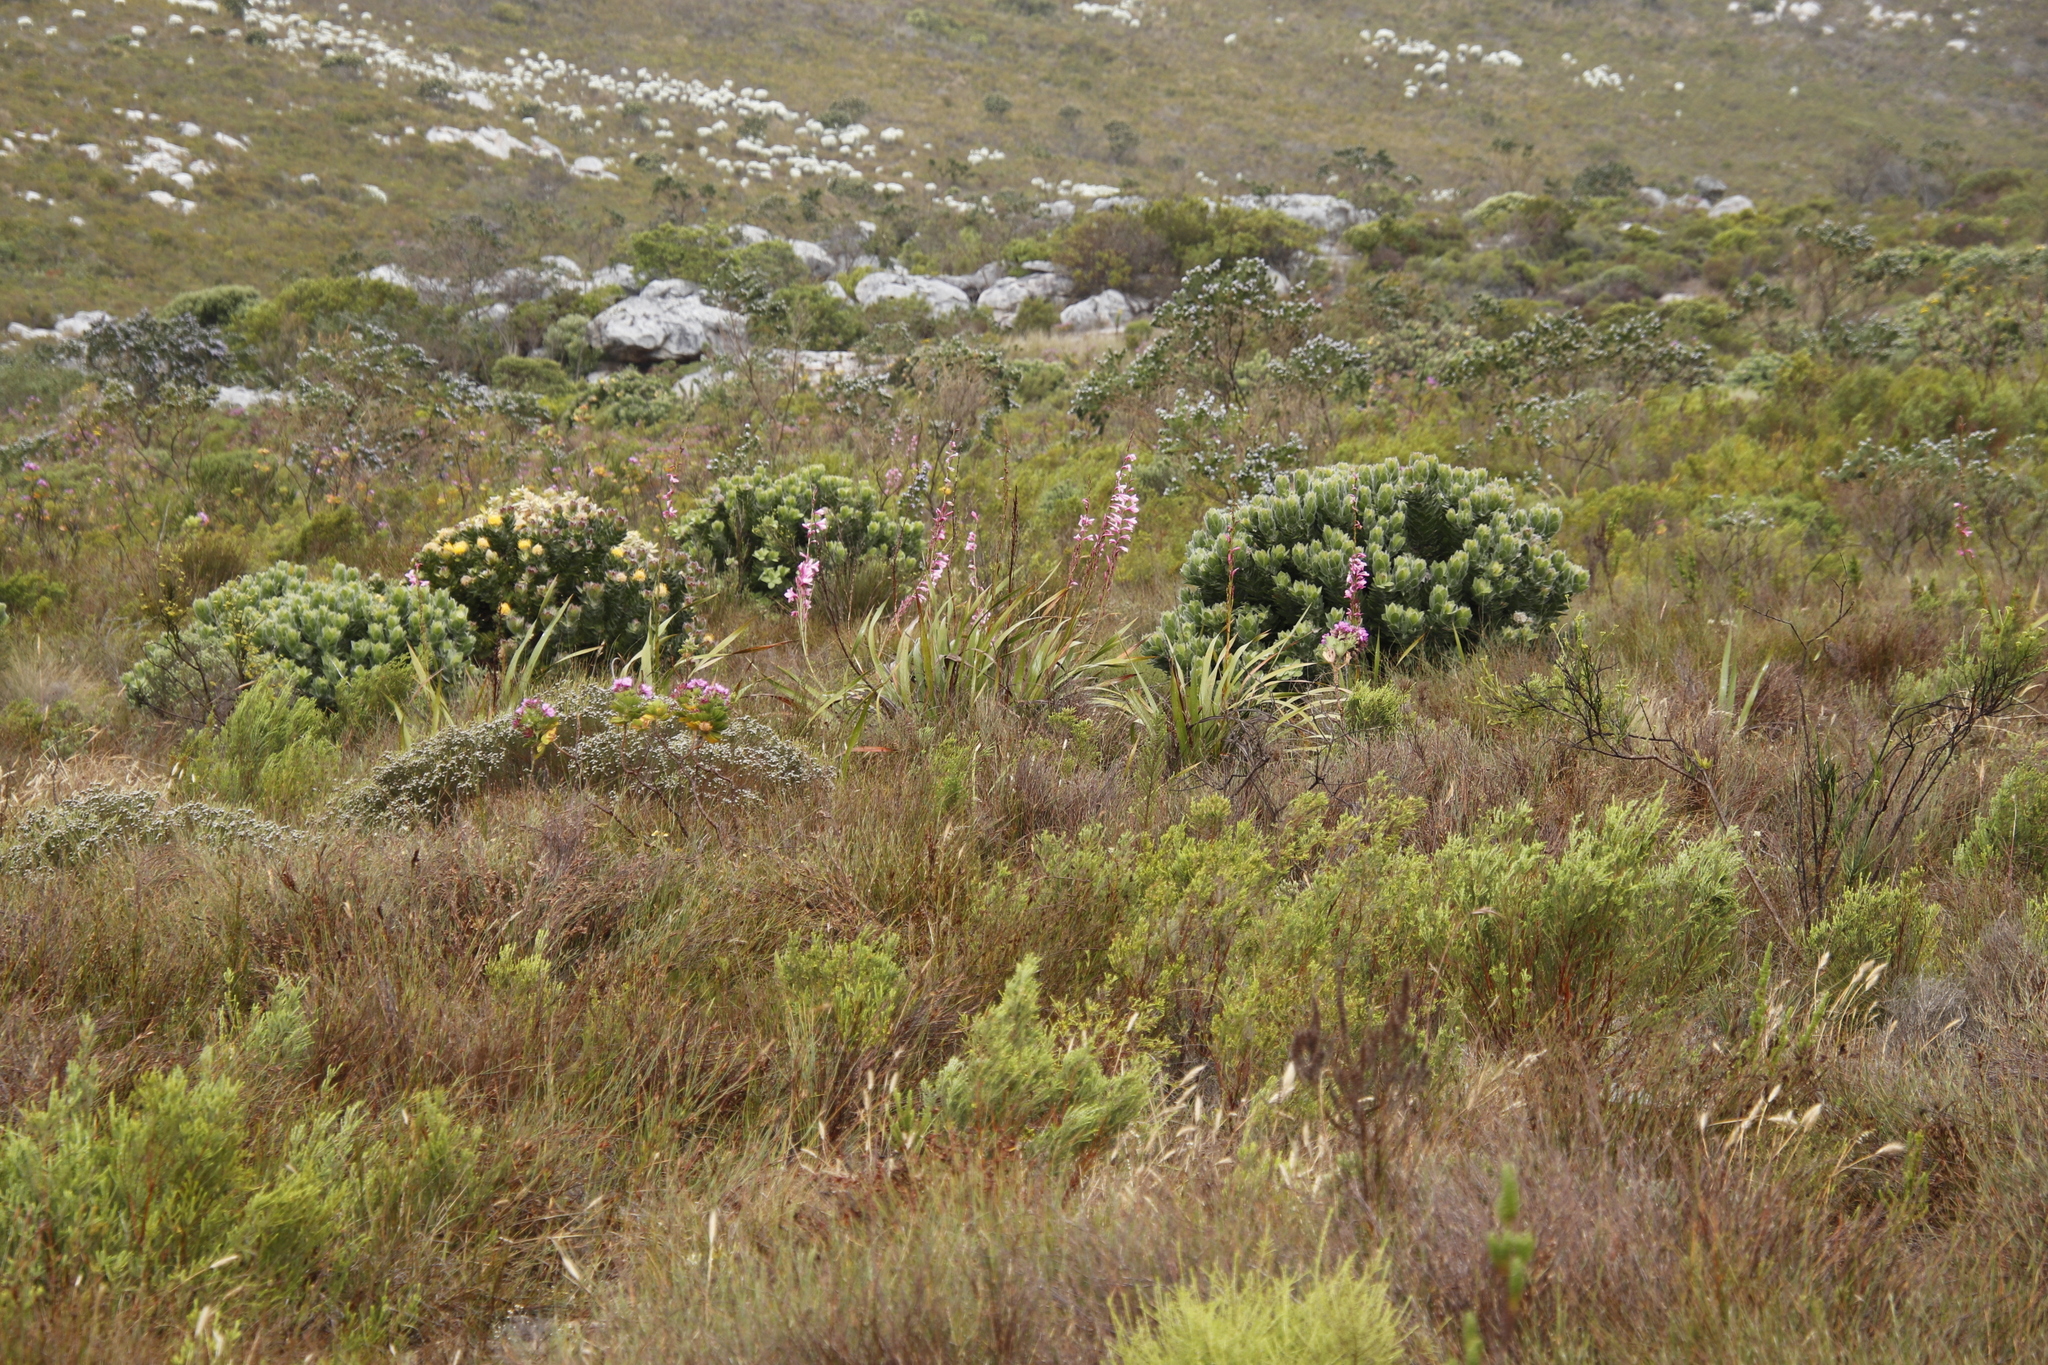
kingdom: Plantae
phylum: Tracheophyta
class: Liliopsida
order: Asparagales
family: Iridaceae
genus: Watsonia
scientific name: Watsonia borbonica
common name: Bugle-lily
